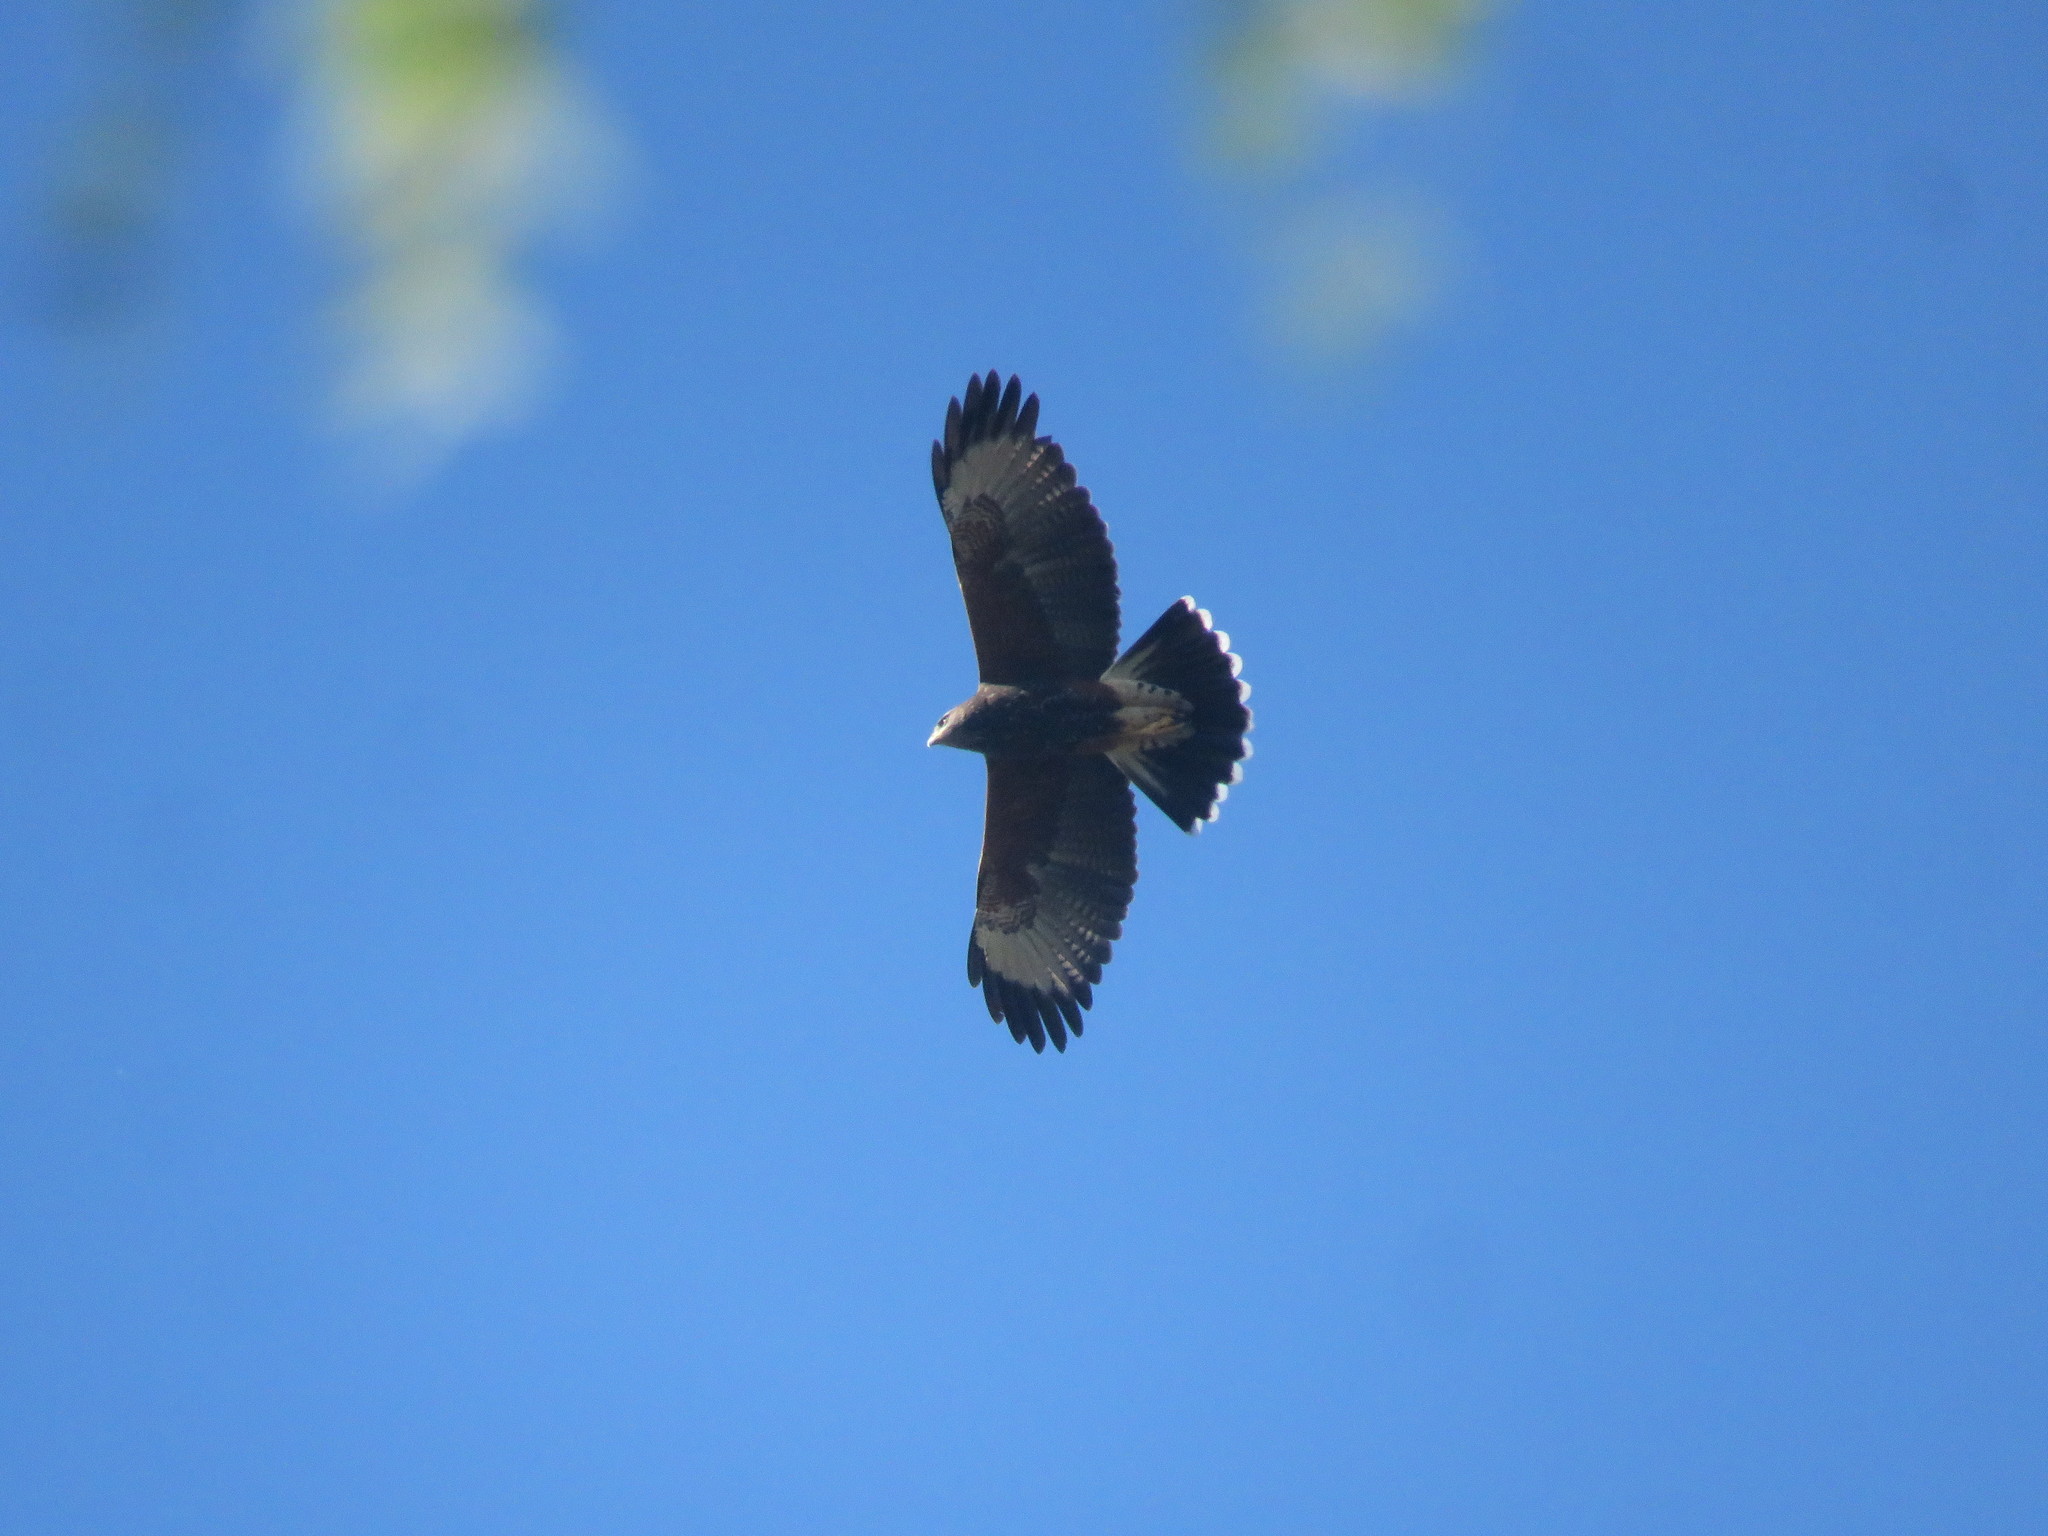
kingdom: Animalia
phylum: Chordata
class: Aves
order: Accipitriformes
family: Accipitridae
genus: Parabuteo
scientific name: Parabuteo unicinctus
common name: Harris's hawk
